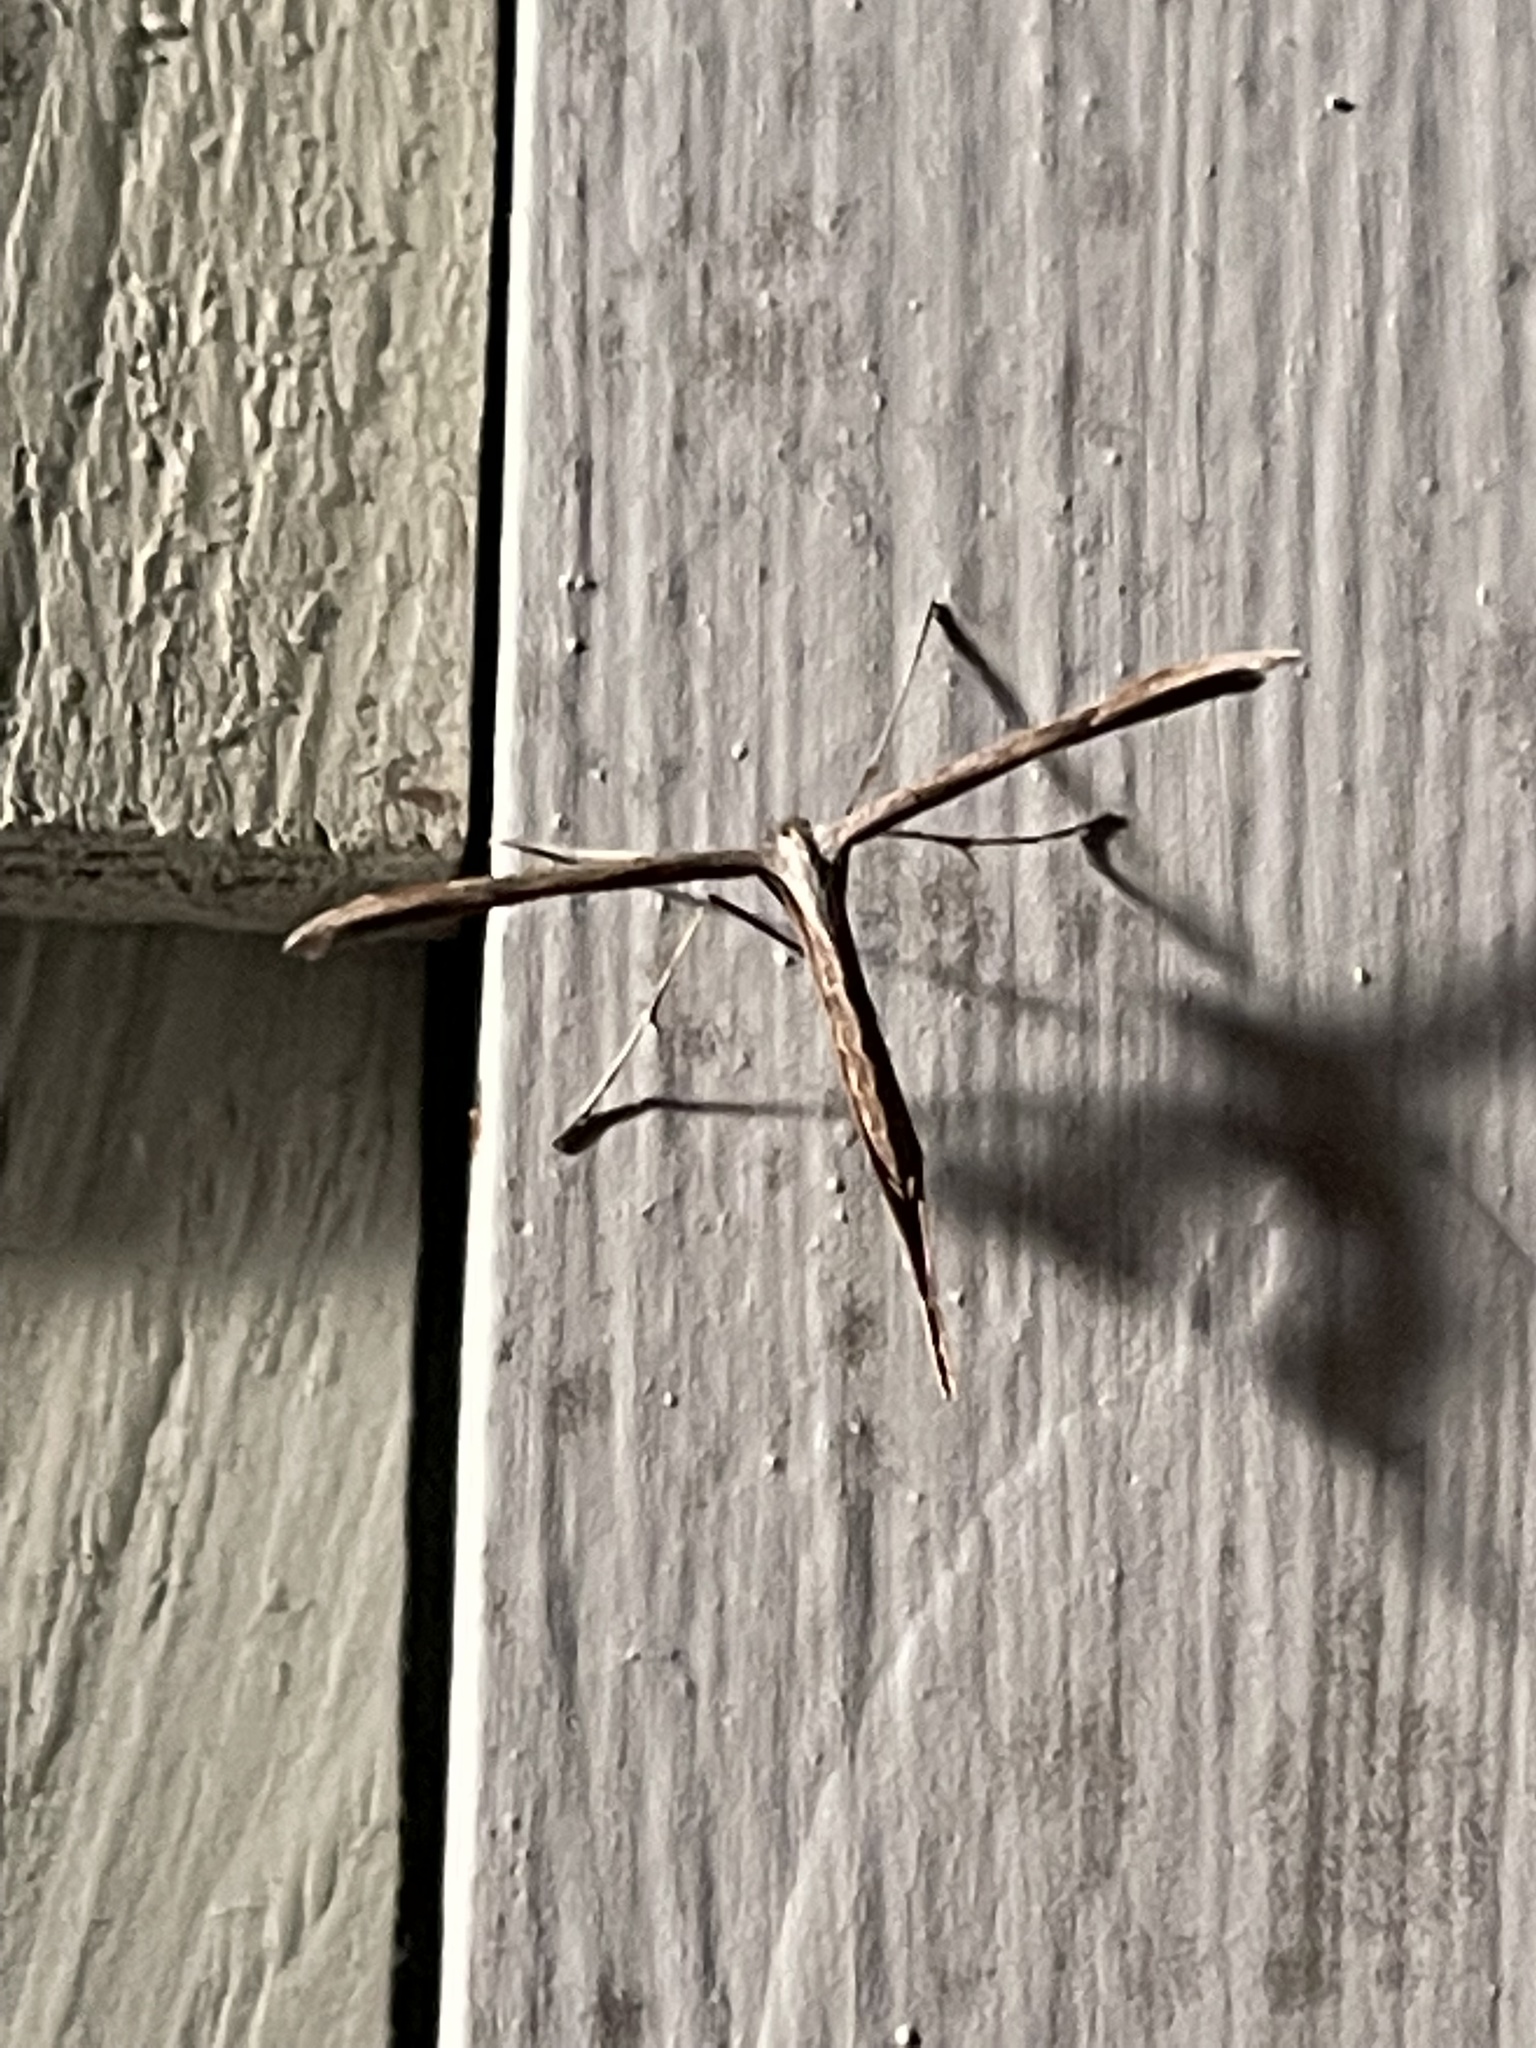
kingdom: Animalia
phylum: Arthropoda
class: Insecta
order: Lepidoptera
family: Pterophoridae
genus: Emmelina
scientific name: Emmelina monodactyla
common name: Common plume
